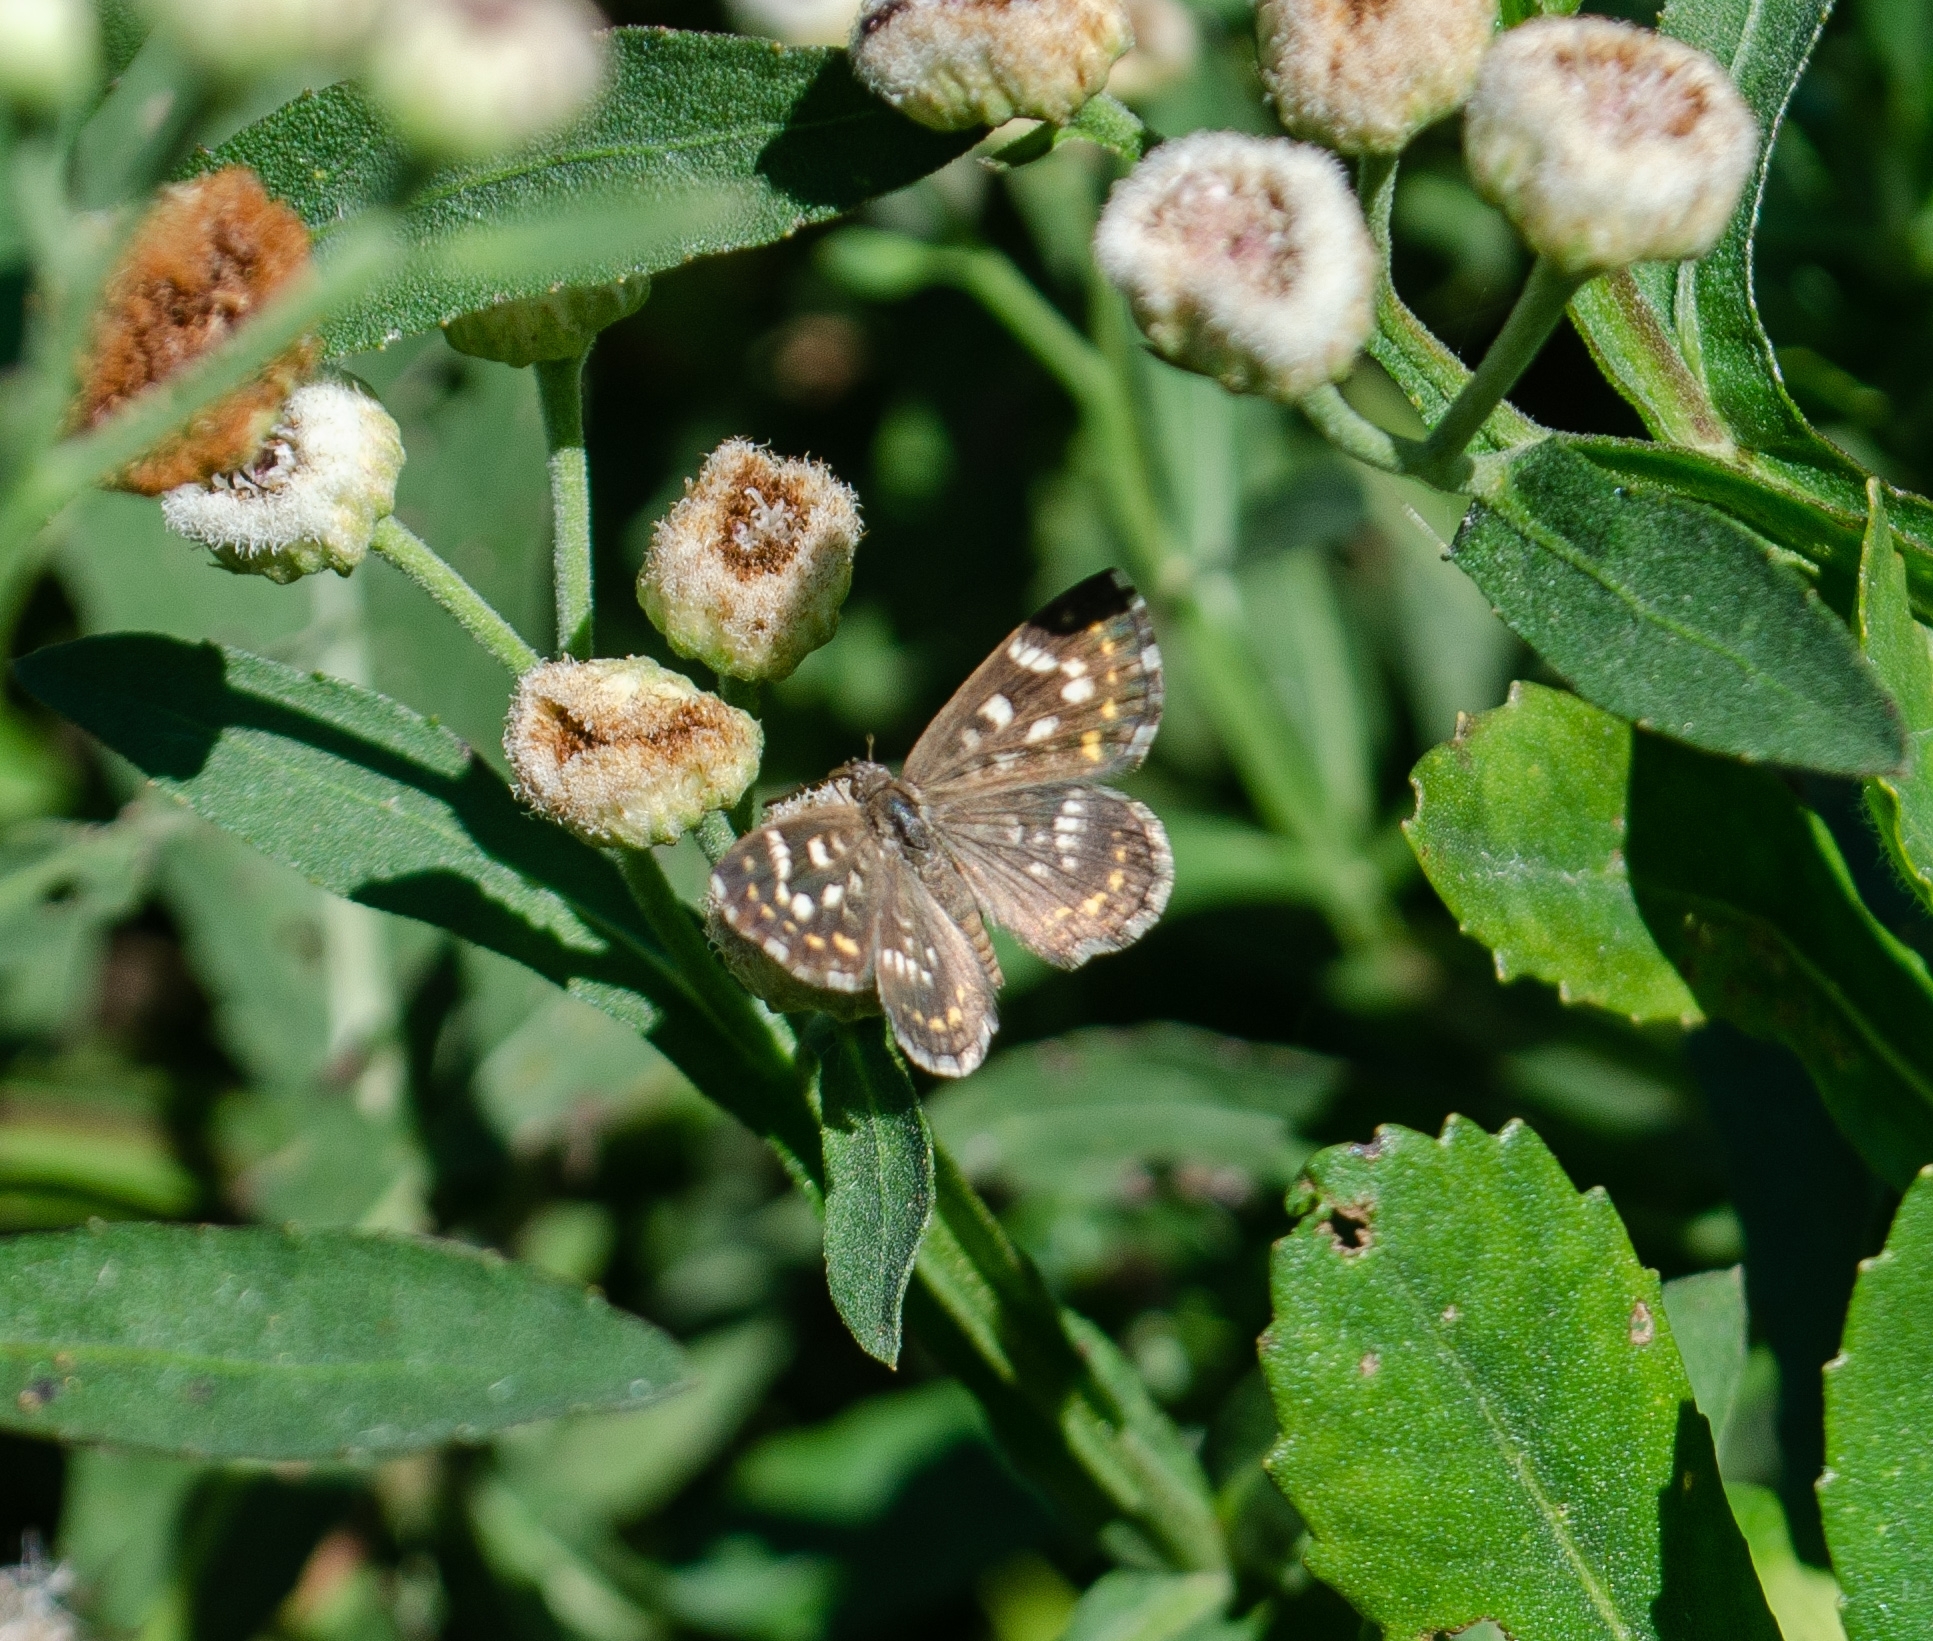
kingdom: Animalia
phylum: Arthropoda
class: Insecta
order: Lepidoptera
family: Lycaenidae
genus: Aricoris
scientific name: Aricoris signata
